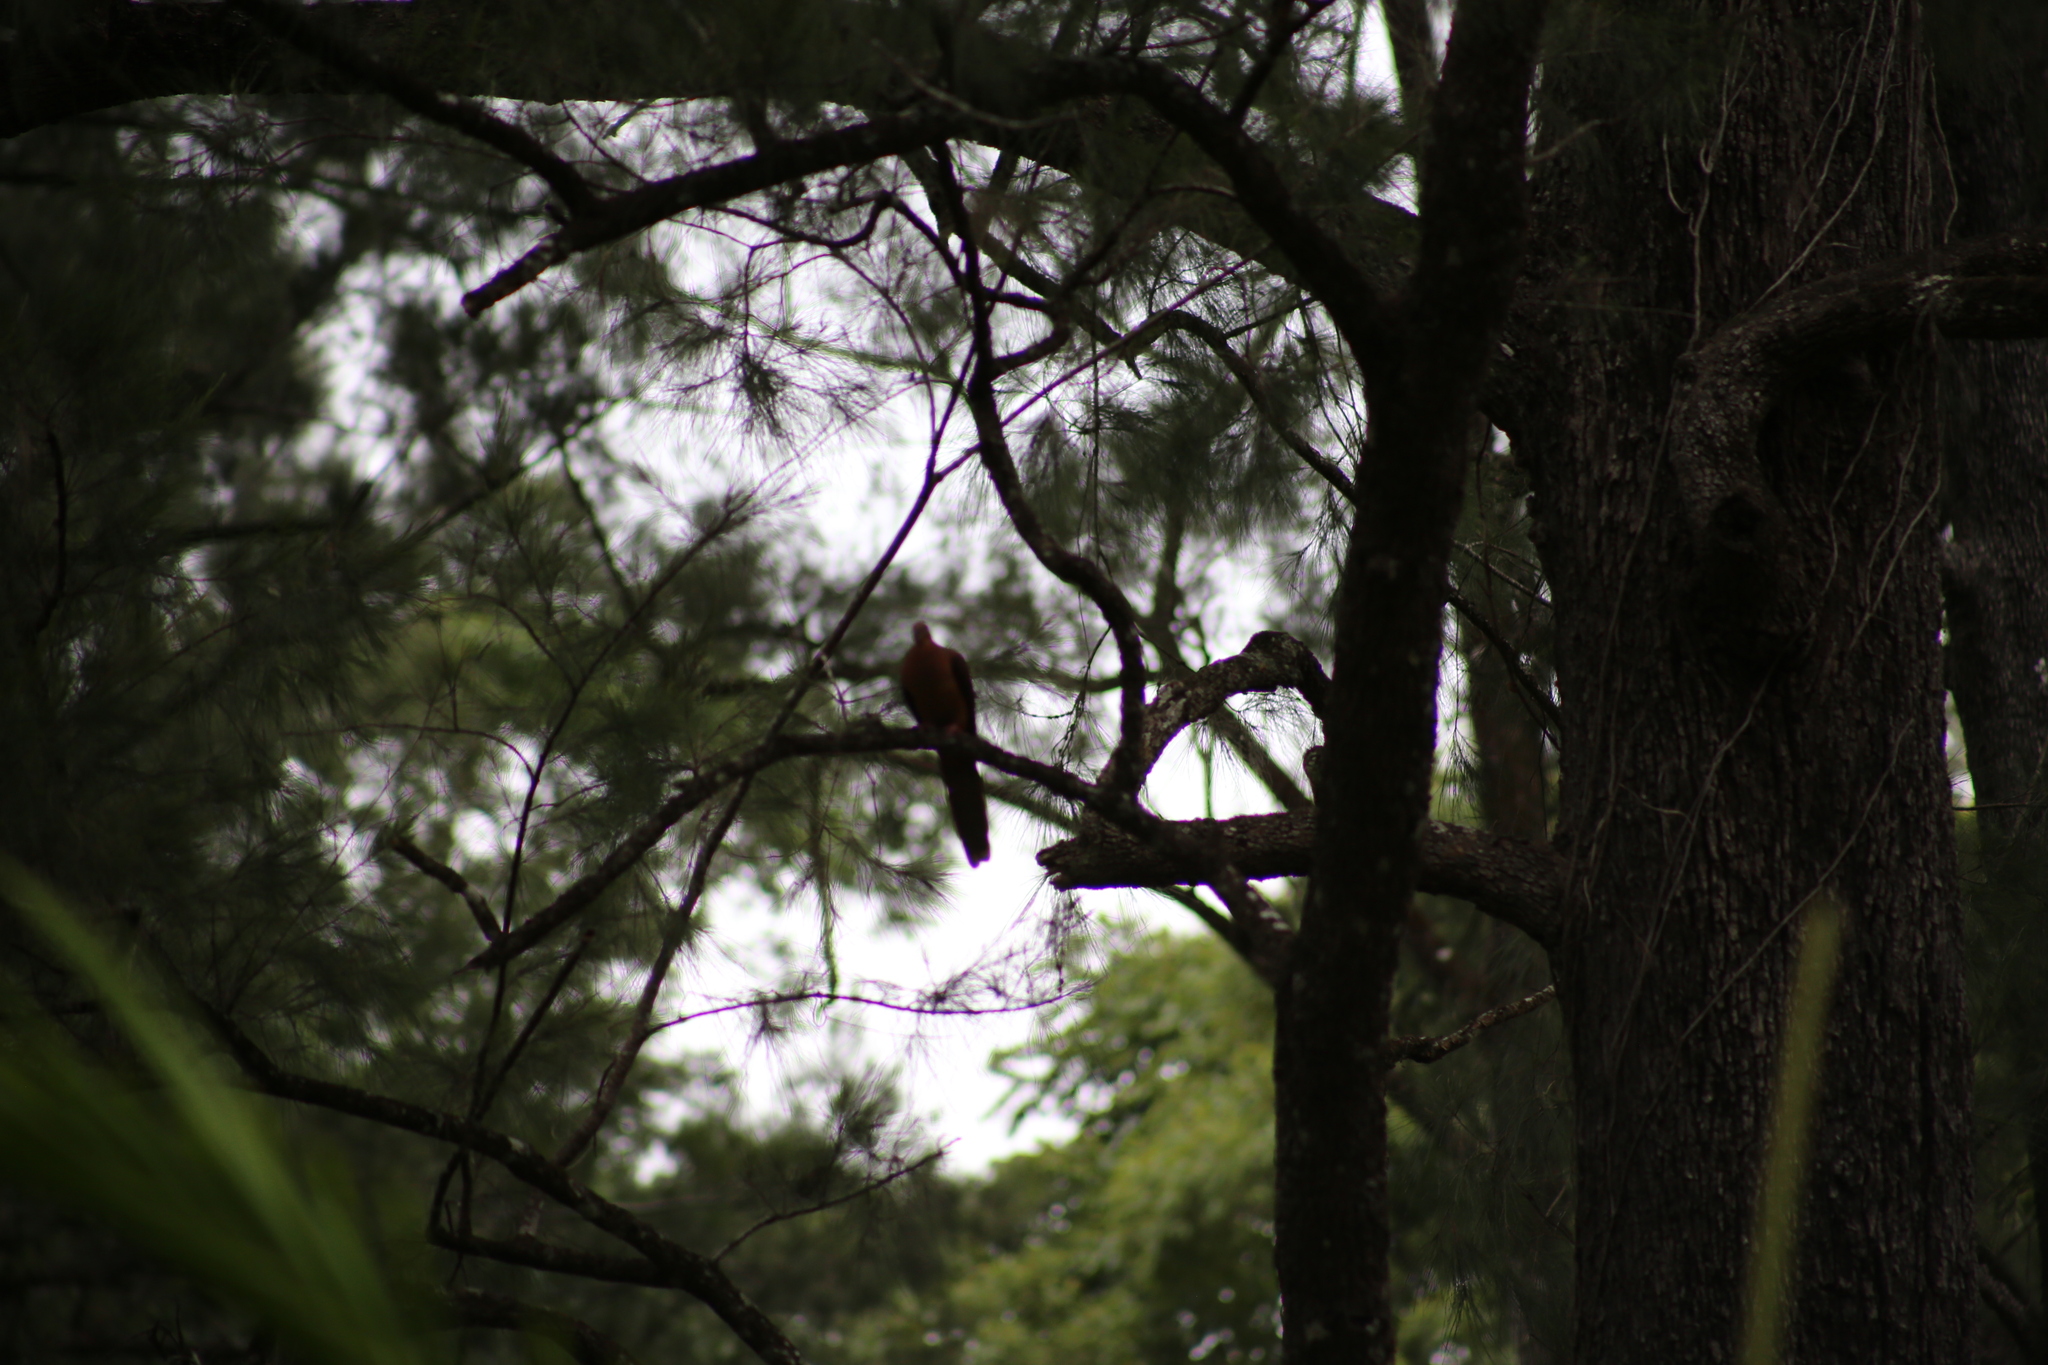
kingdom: Animalia
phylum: Chordata
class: Aves
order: Columbiformes
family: Columbidae
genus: Macropygia
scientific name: Macropygia phasianella
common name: Brown cuckoo-dove
